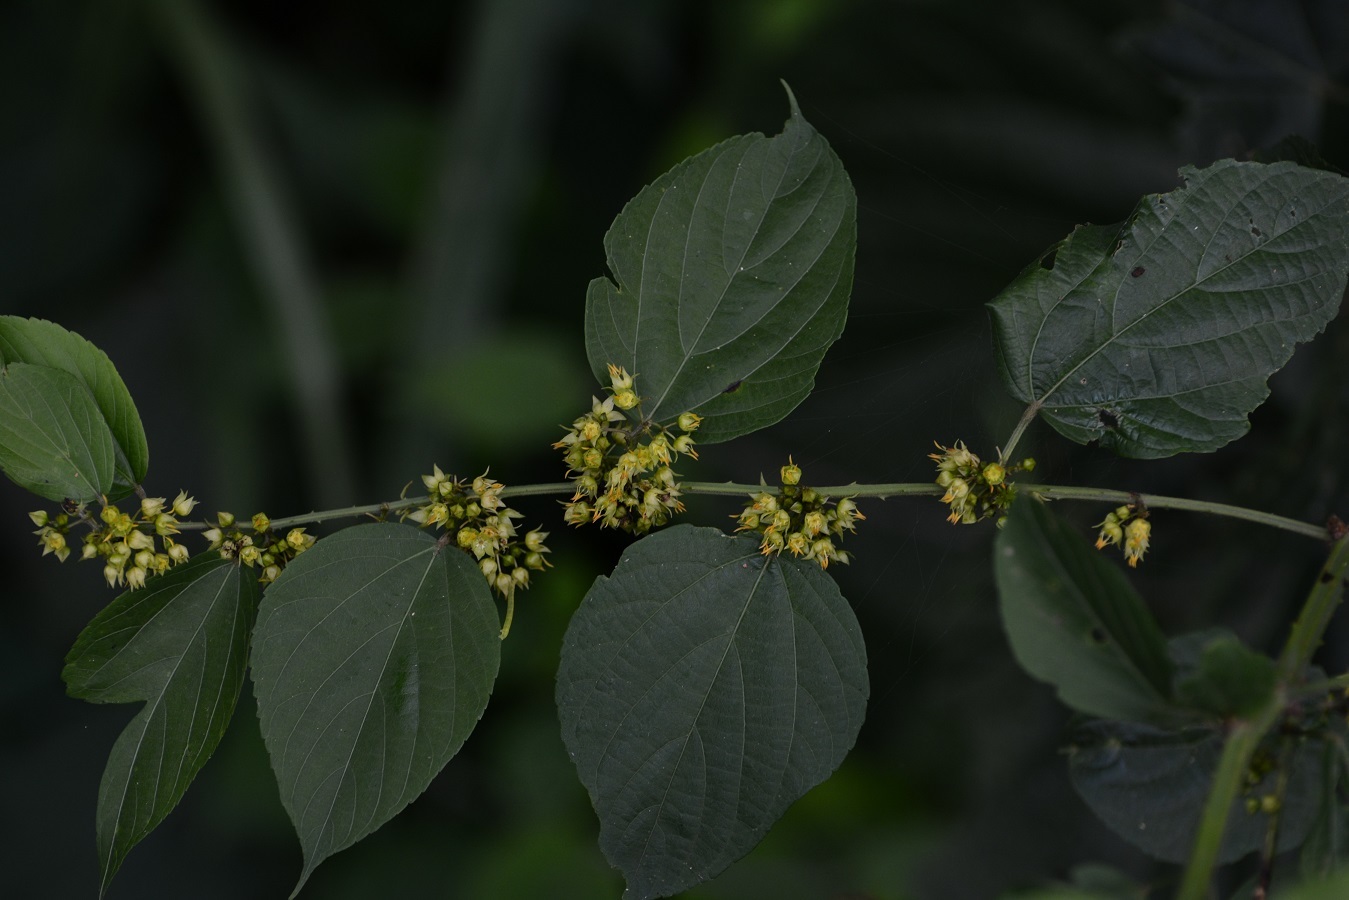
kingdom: Plantae
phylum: Tracheophyta
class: Magnoliopsida
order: Malvales
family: Malvaceae
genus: Byttneria
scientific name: Byttneria aculeata
